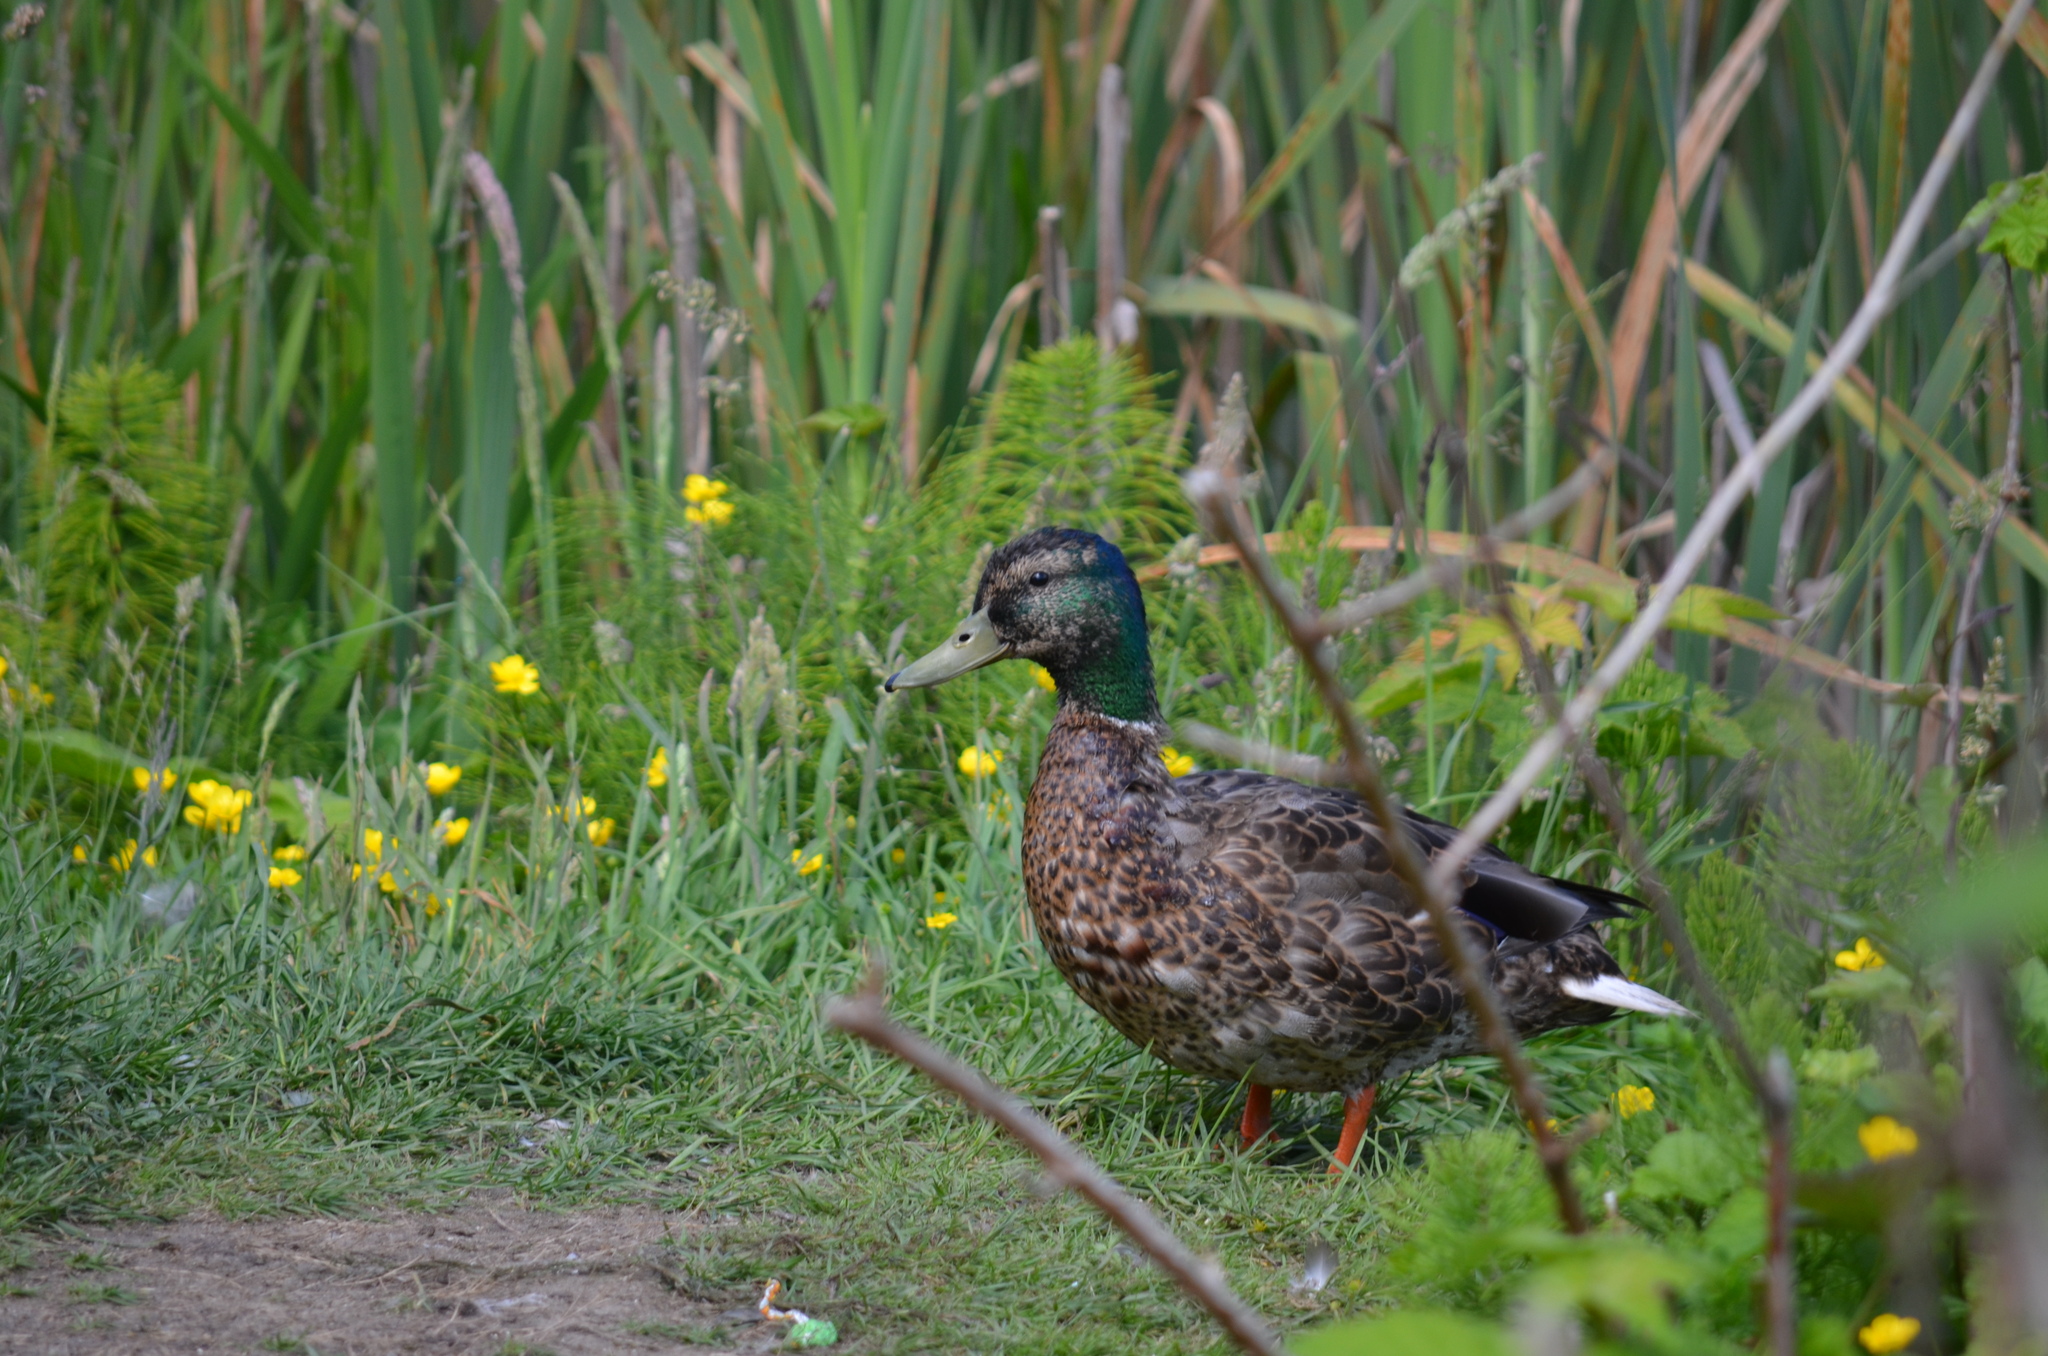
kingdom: Animalia
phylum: Chordata
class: Aves
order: Anseriformes
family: Anatidae
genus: Anas
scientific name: Anas platyrhynchos
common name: Mallard
